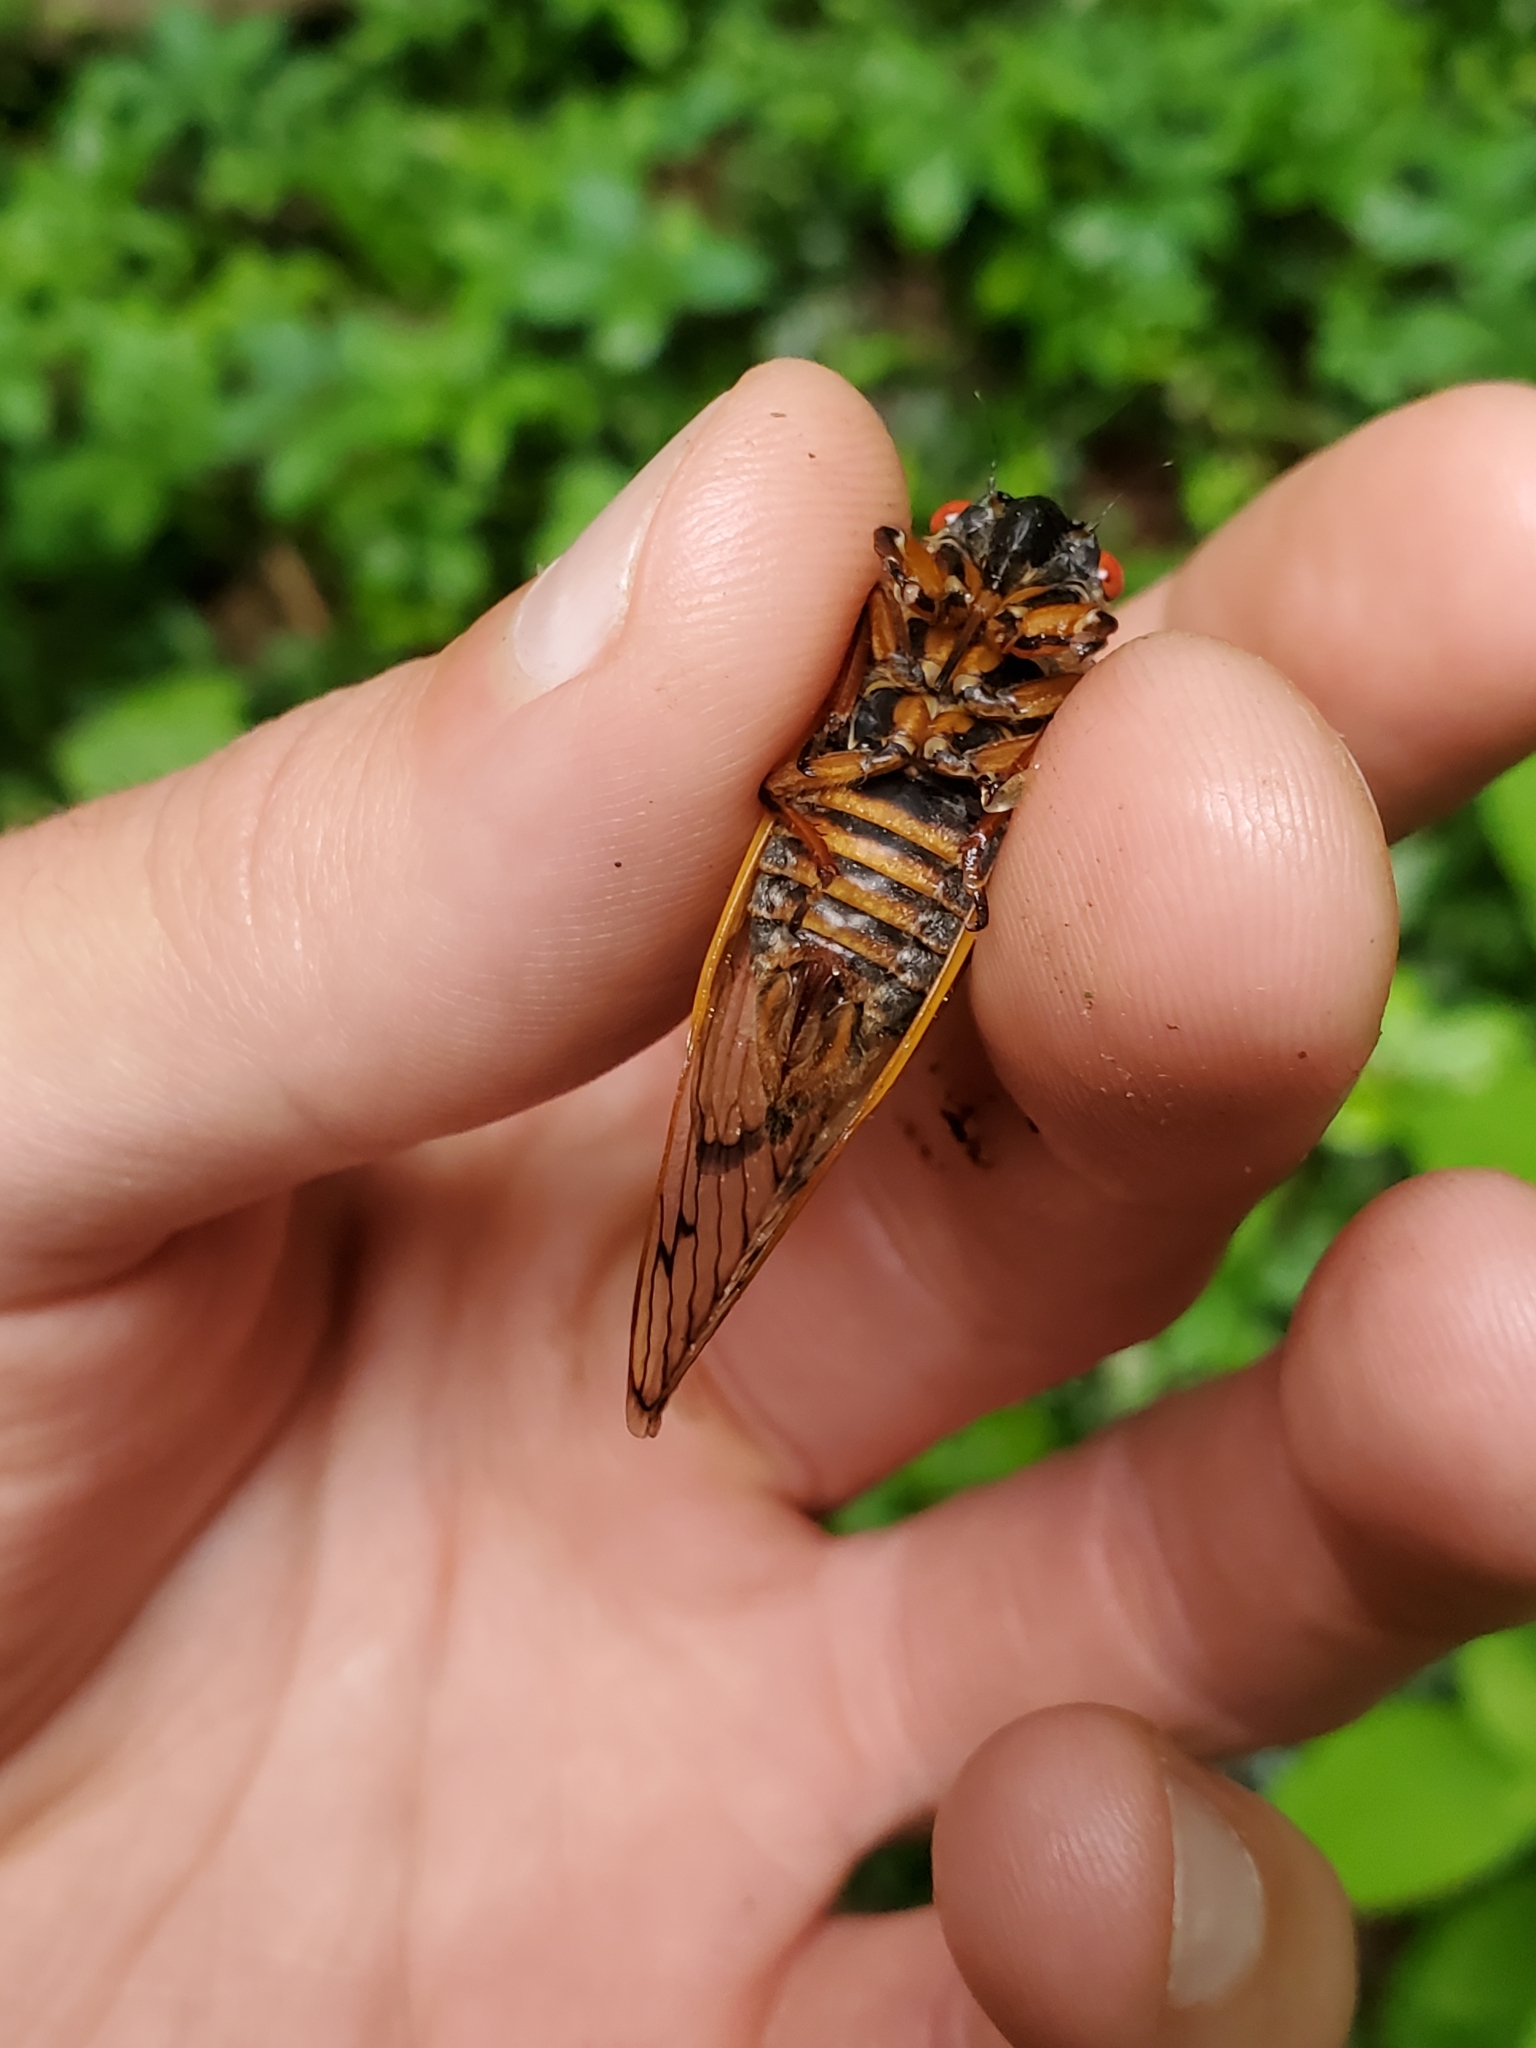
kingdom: Animalia
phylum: Arthropoda
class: Insecta
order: Hemiptera
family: Cicadidae
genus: Magicicada
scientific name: Magicicada septendecim
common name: Periodical cicada
